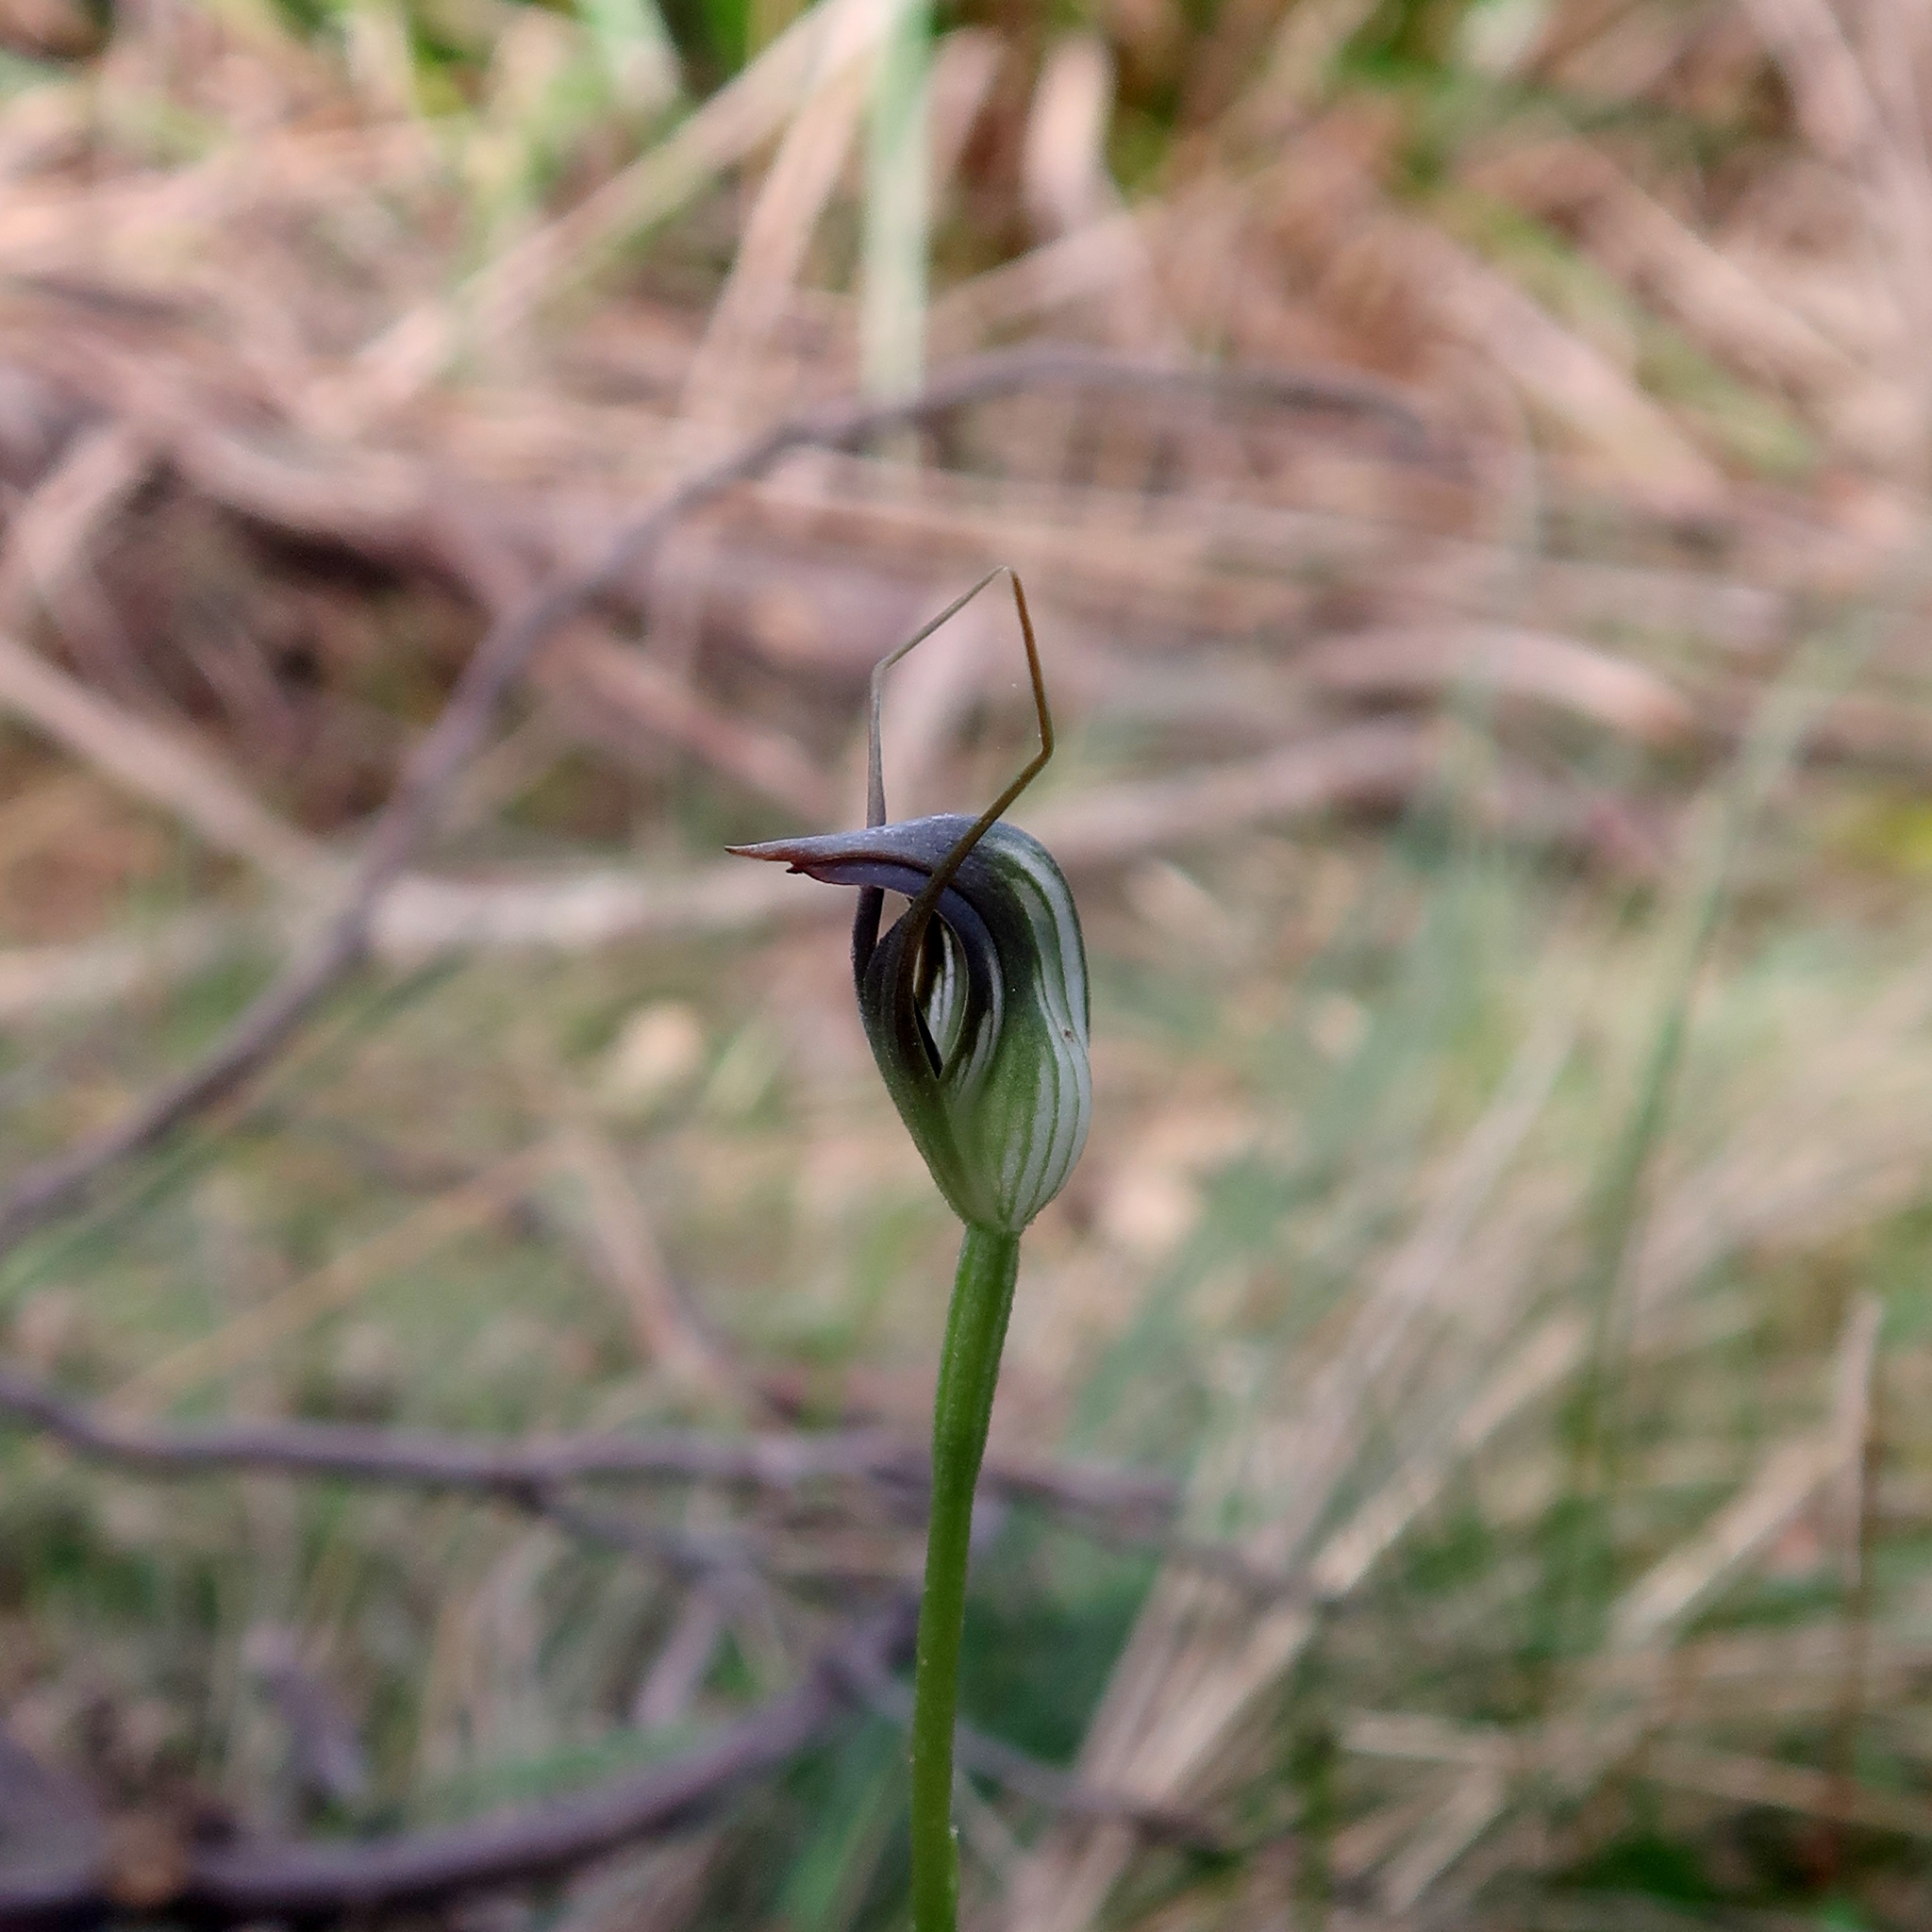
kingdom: Plantae
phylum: Tracheophyta
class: Liliopsida
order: Asparagales
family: Orchidaceae
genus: Pterostylis
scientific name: Pterostylis pedunculata
